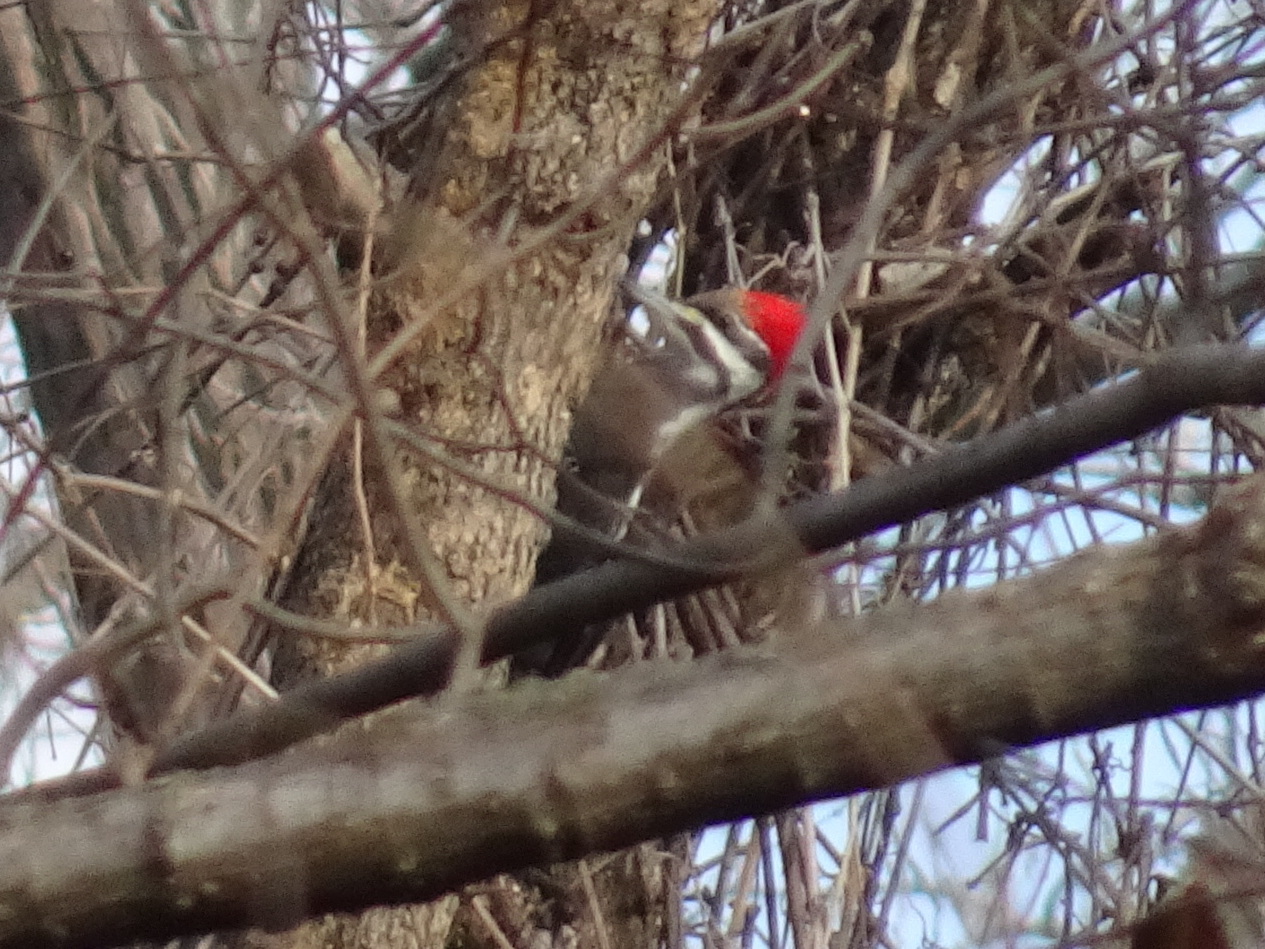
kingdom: Animalia
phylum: Chordata
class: Aves
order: Piciformes
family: Picidae
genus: Dryocopus
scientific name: Dryocopus pileatus
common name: Pileated woodpecker
